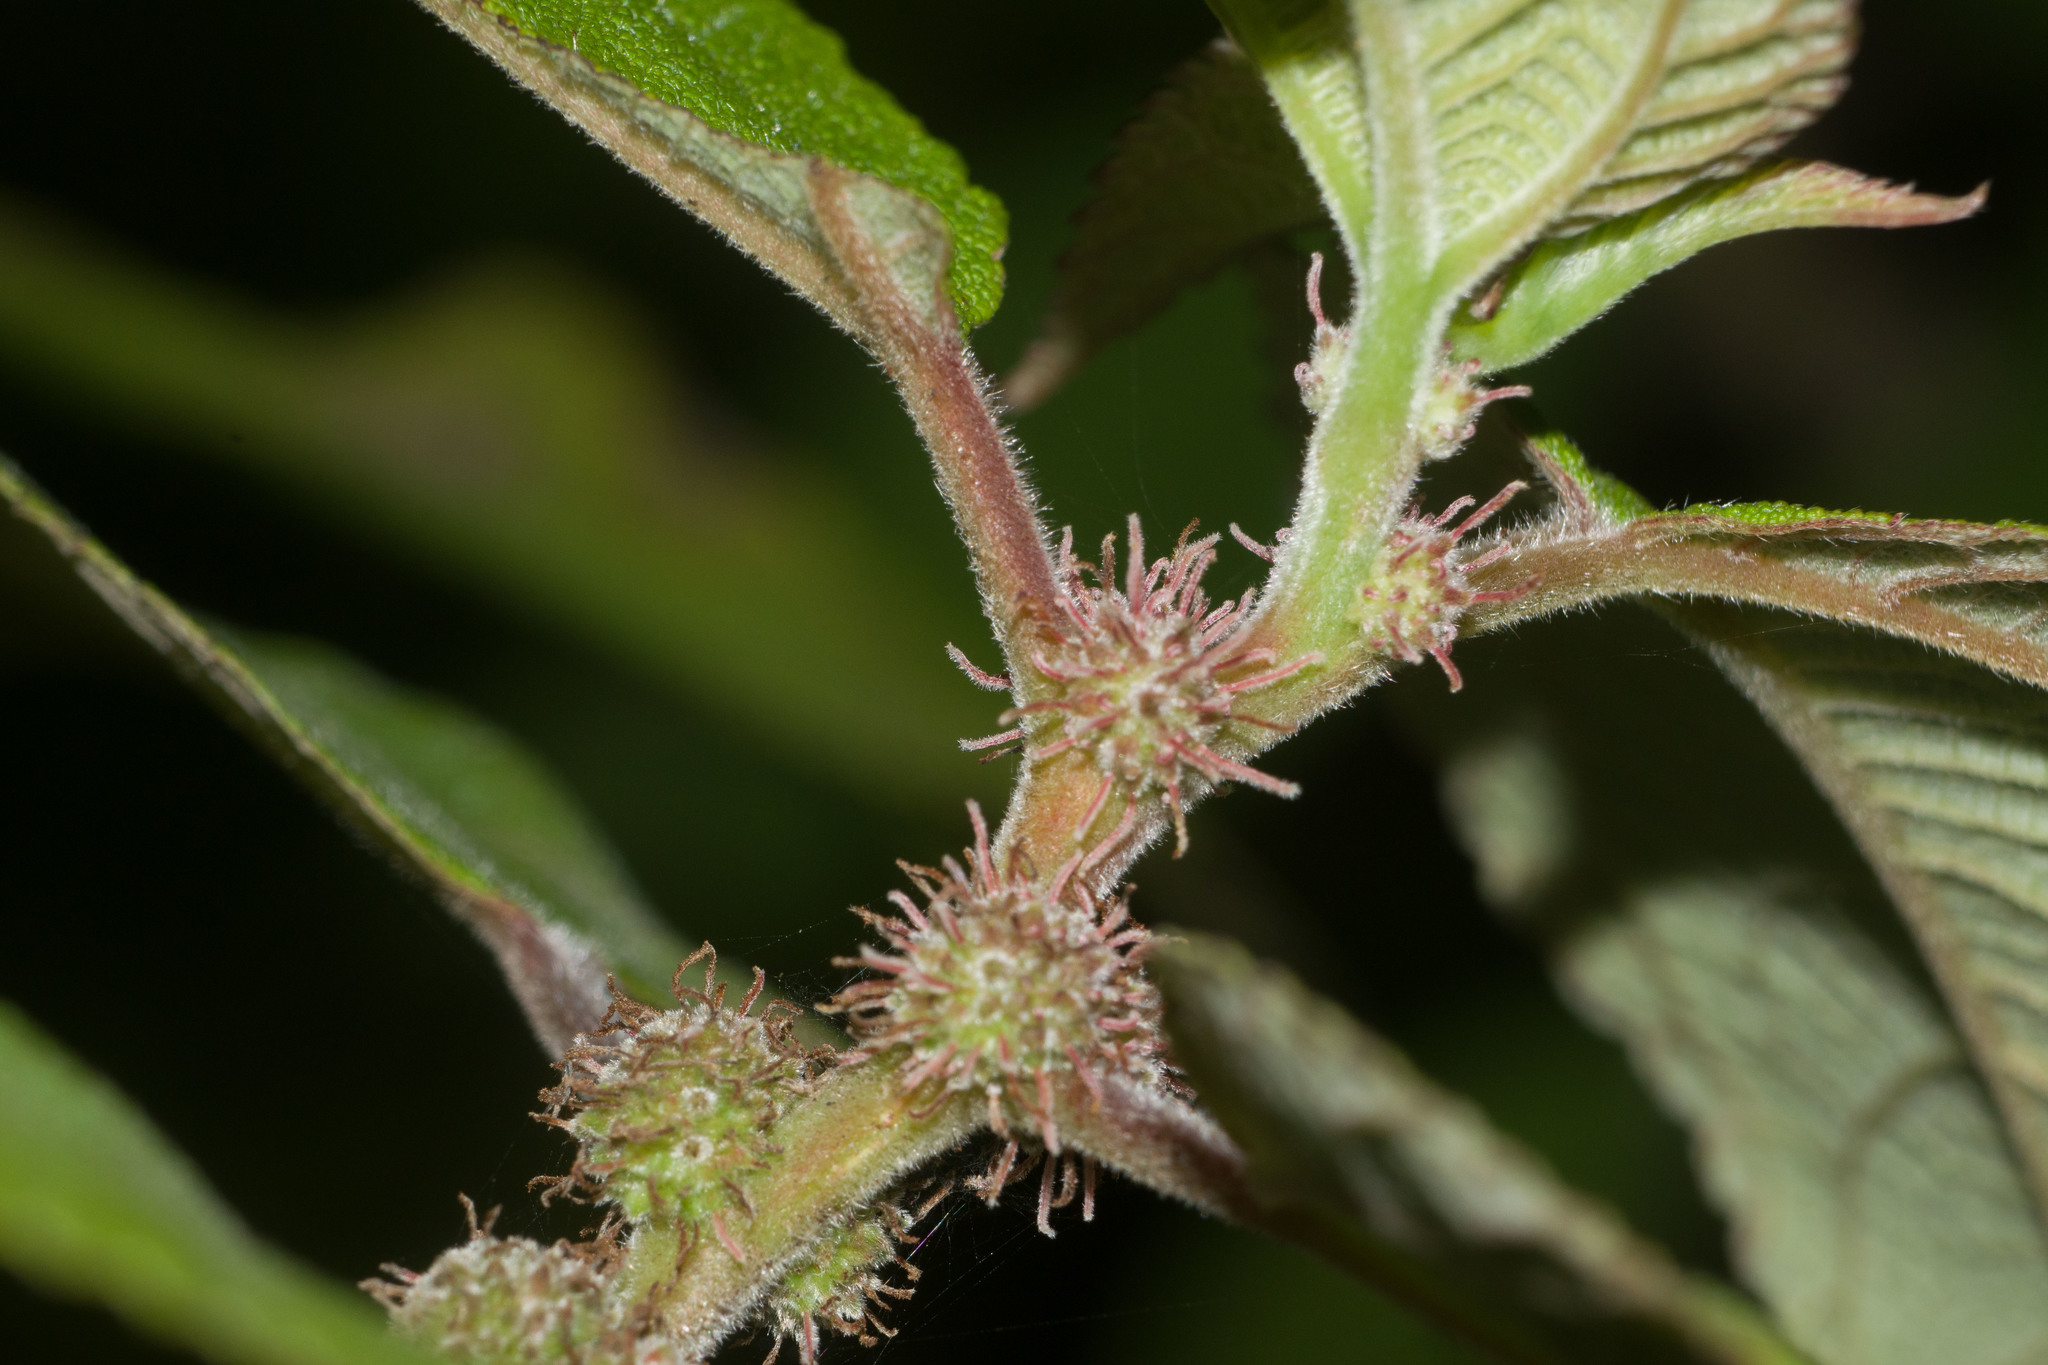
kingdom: Plantae
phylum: Tracheophyta
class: Magnoliopsida
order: Rosales
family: Urticaceae
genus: Pipturus
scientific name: Pipturus albidus
